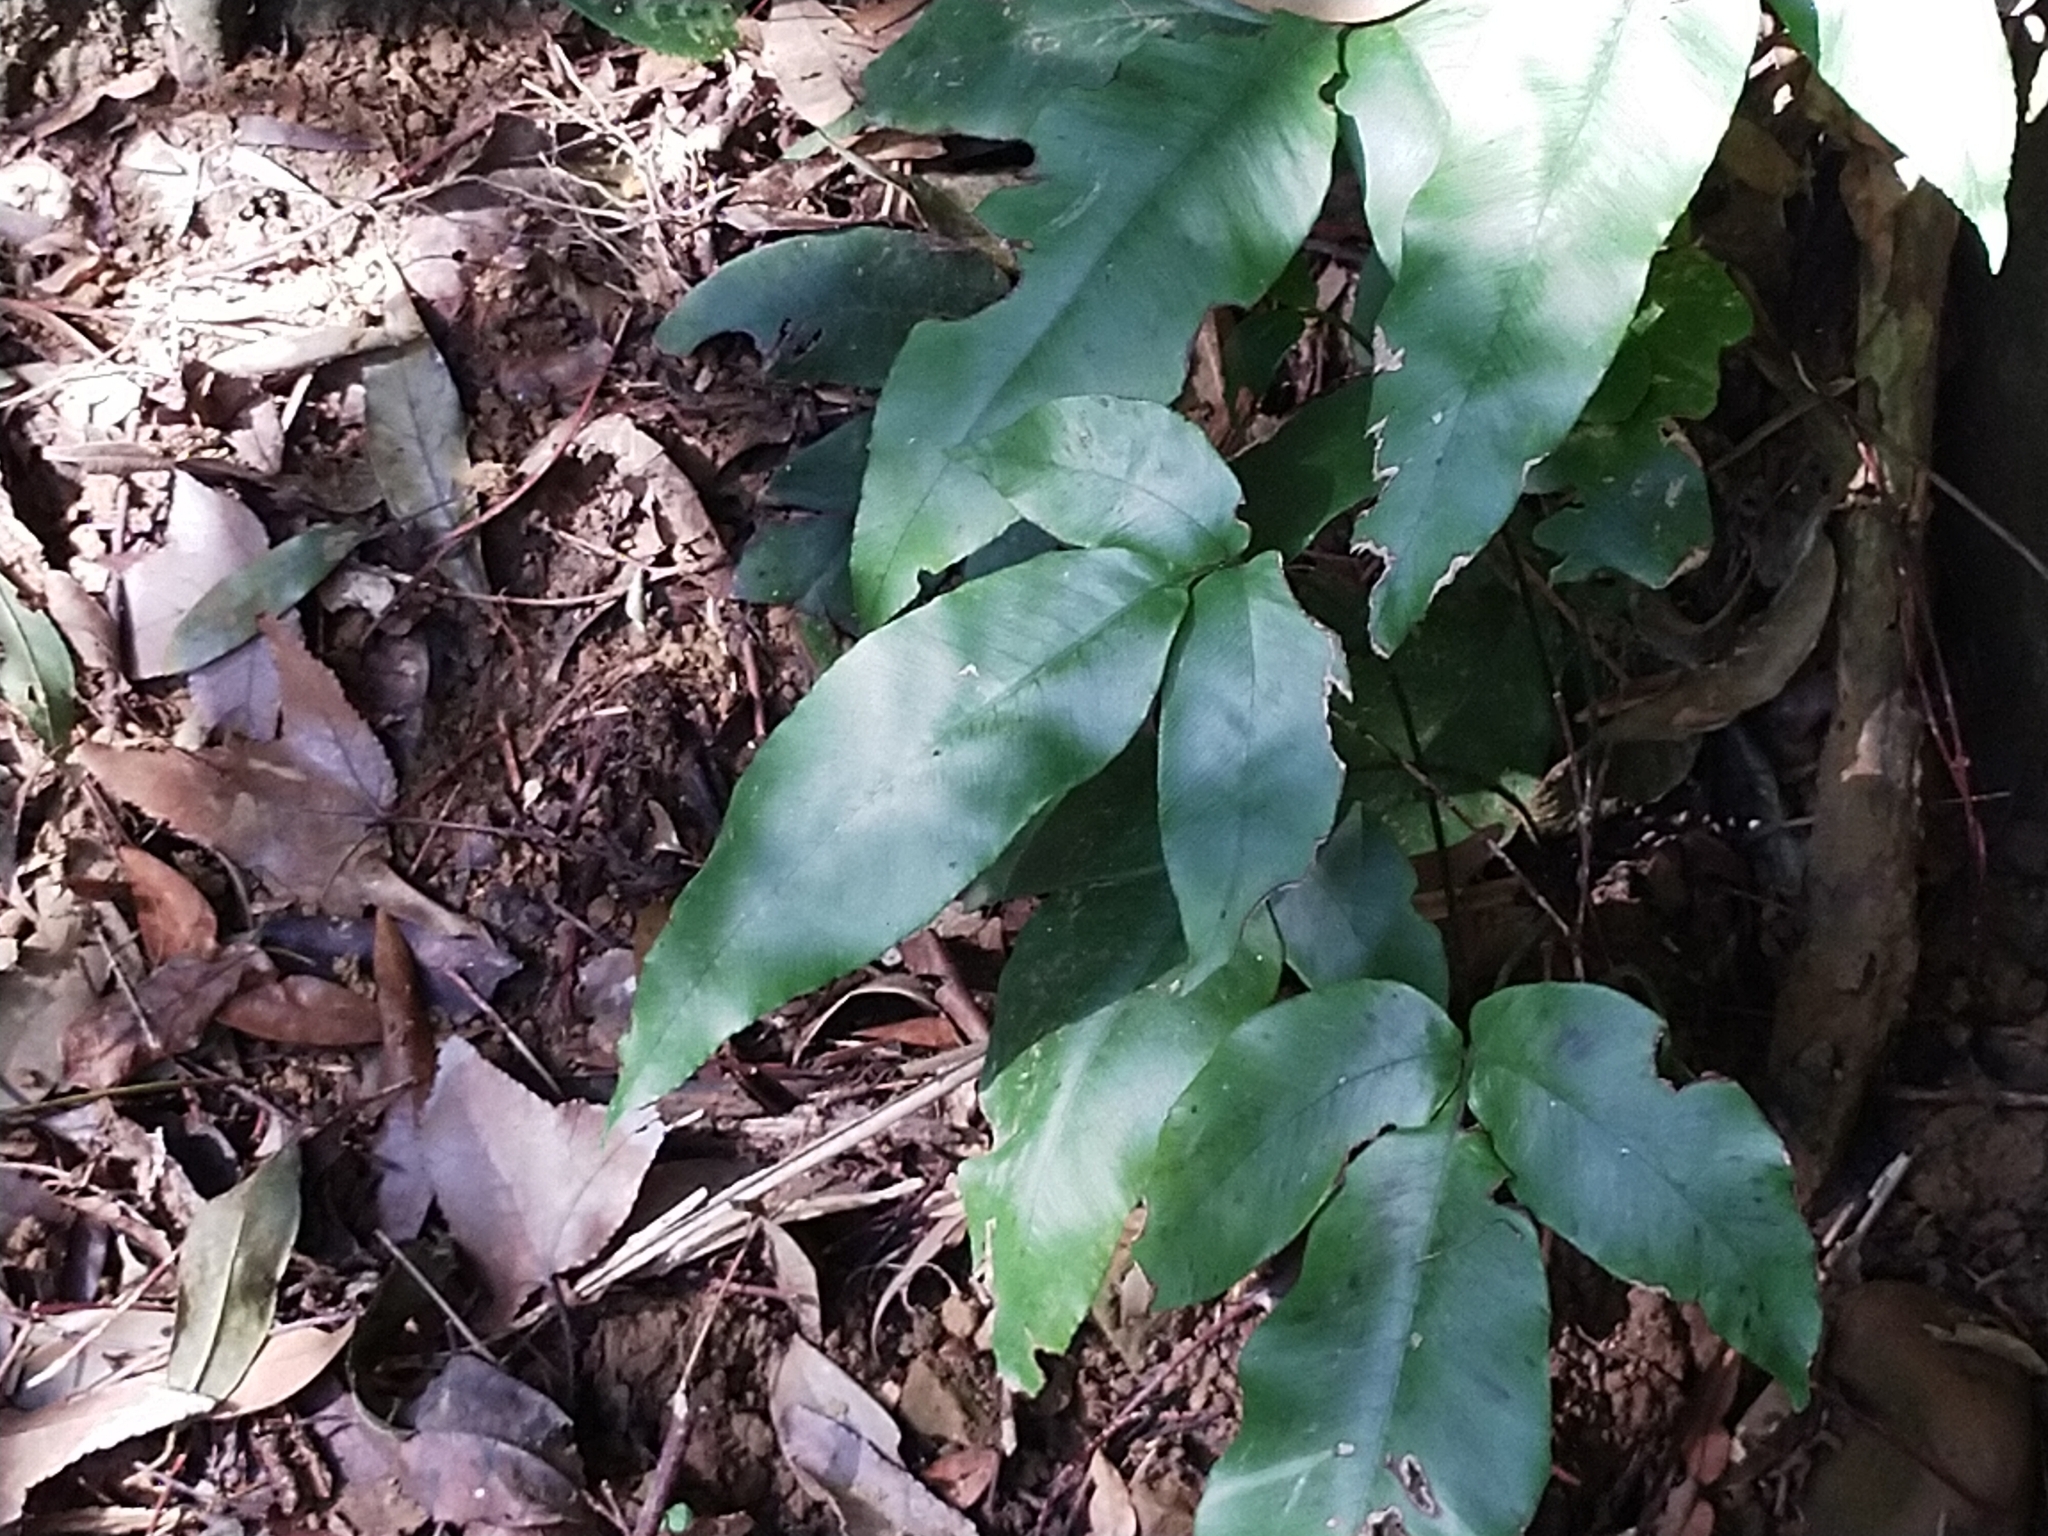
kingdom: Plantae
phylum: Tracheophyta
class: Polypodiopsida
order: Polypodiales
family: Athyriaceae
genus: Diplazium
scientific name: Diplazium lineolatum
